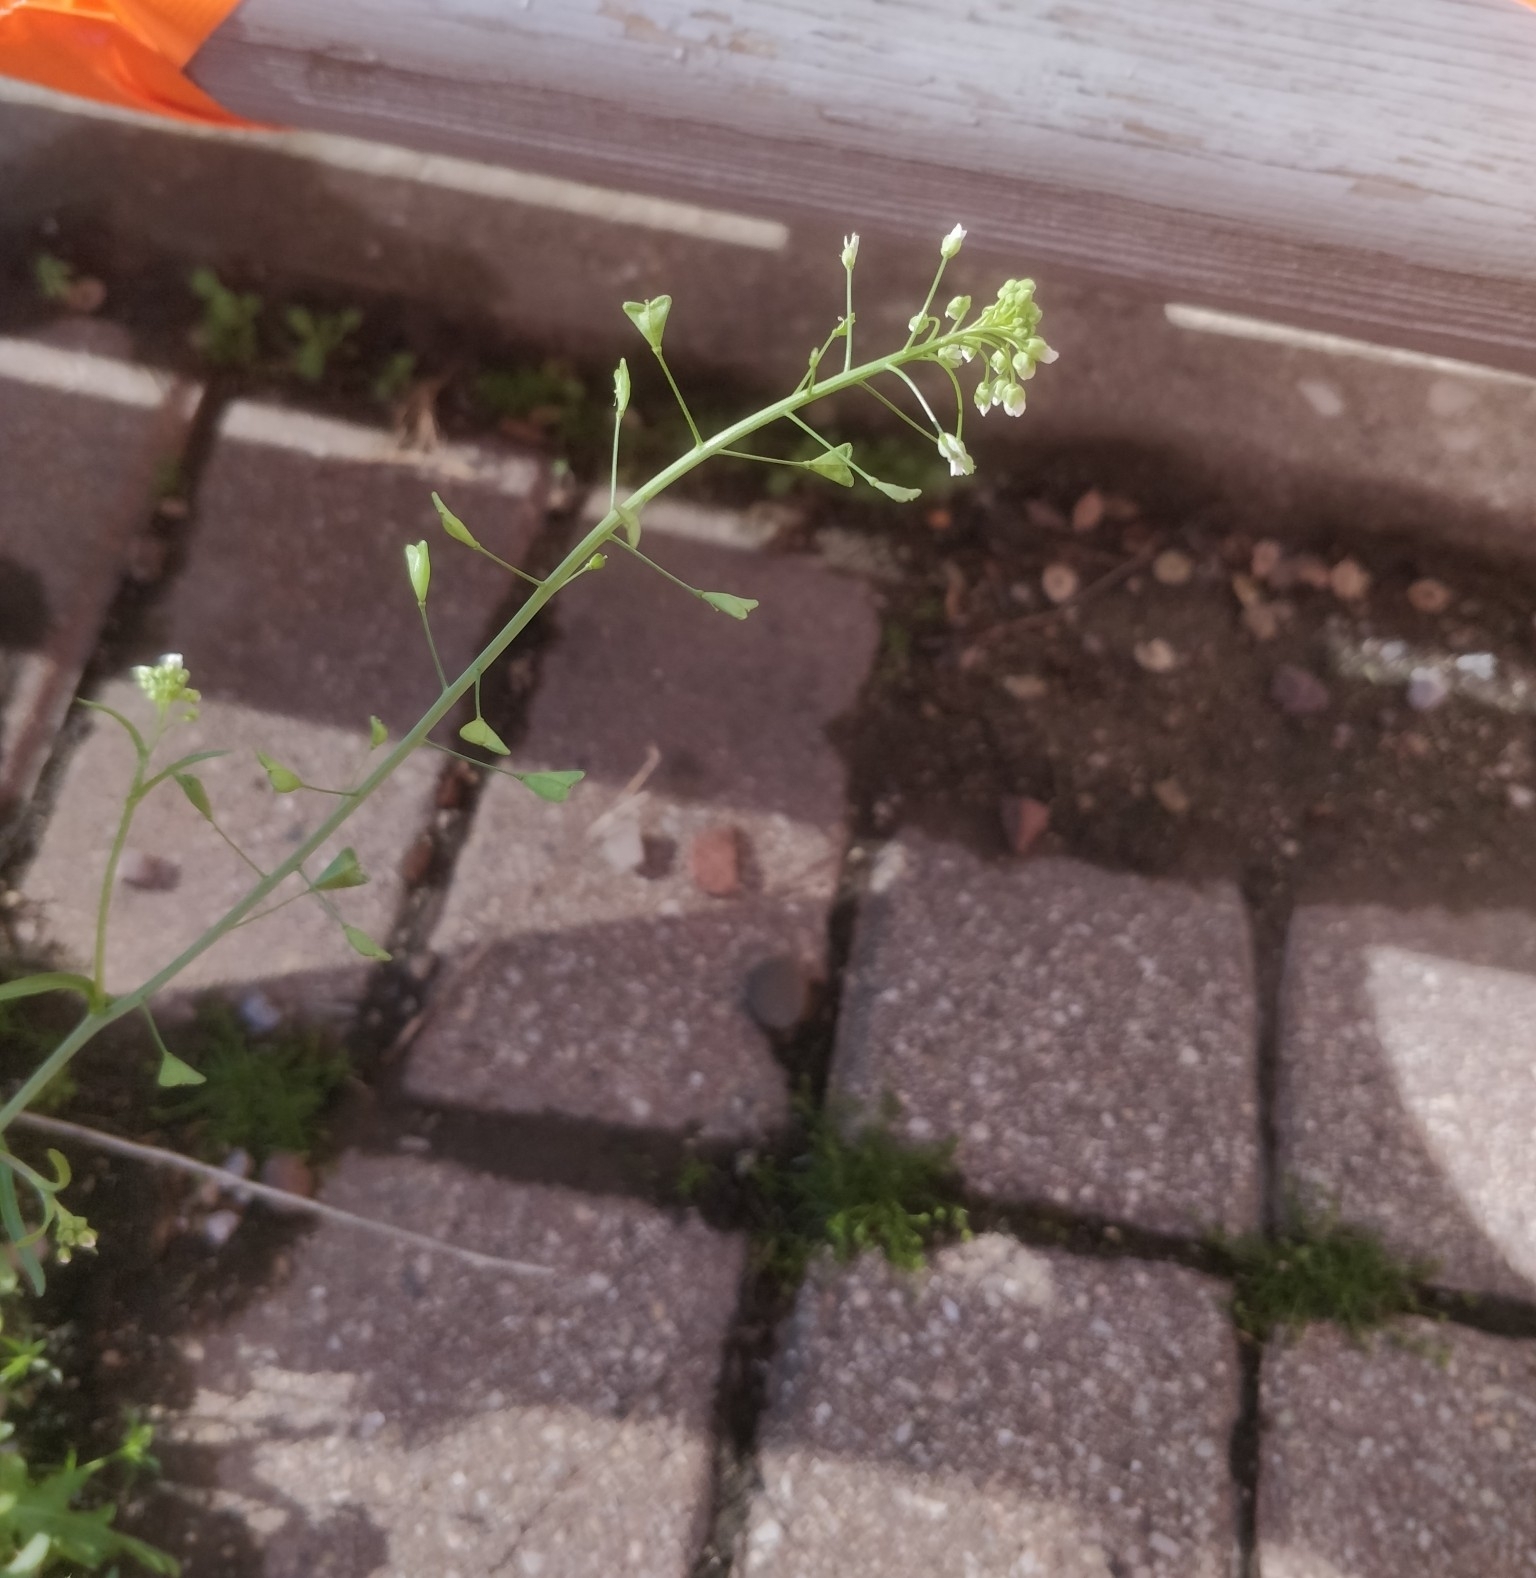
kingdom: Plantae
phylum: Tracheophyta
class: Magnoliopsida
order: Brassicales
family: Brassicaceae
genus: Capsella
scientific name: Capsella bursa-pastoris
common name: Shepherd's purse
